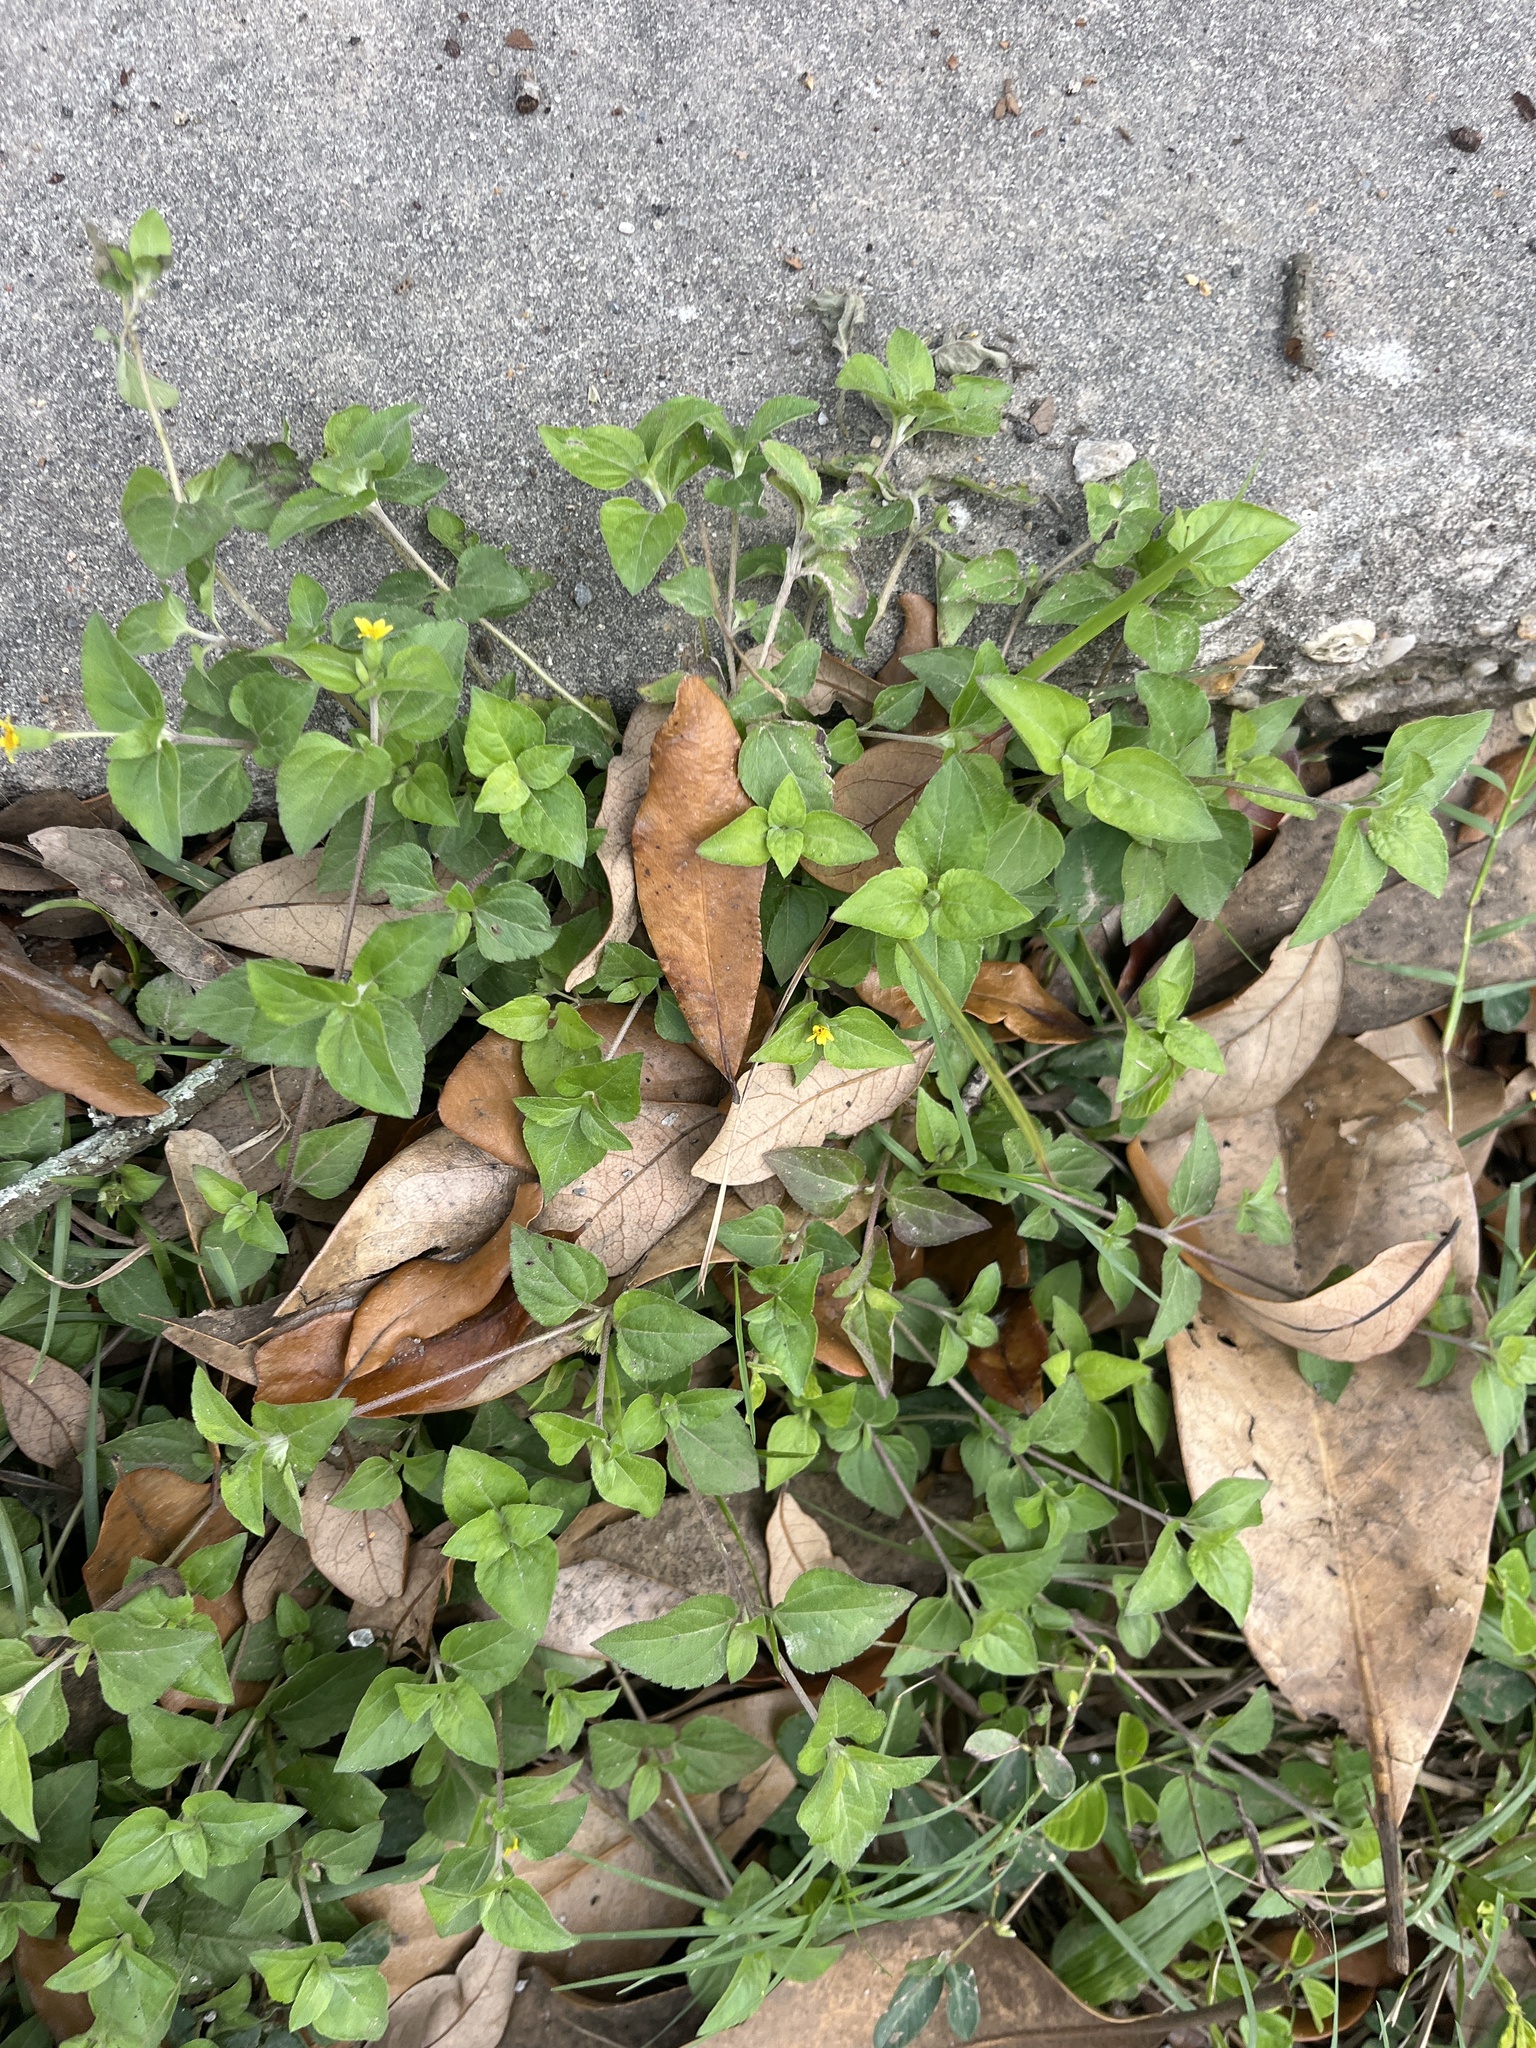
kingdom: Plantae
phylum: Tracheophyta
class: Magnoliopsida
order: Asterales
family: Asteraceae
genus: Calyptocarpus
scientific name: Calyptocarpus vialis
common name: Straggler daisy
